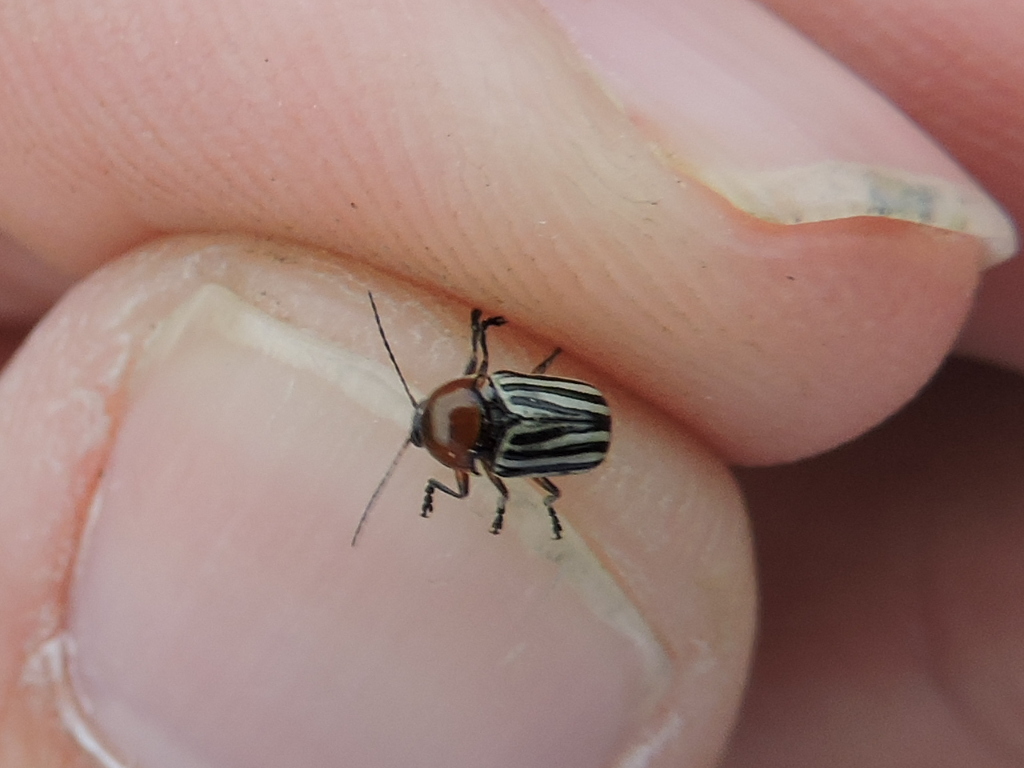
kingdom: Animalia
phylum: Arthropoda
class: Insecta
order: Coleoptera
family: Chrysomelidae
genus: Cryptocephalus
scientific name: Cryptocephalus confluentus
